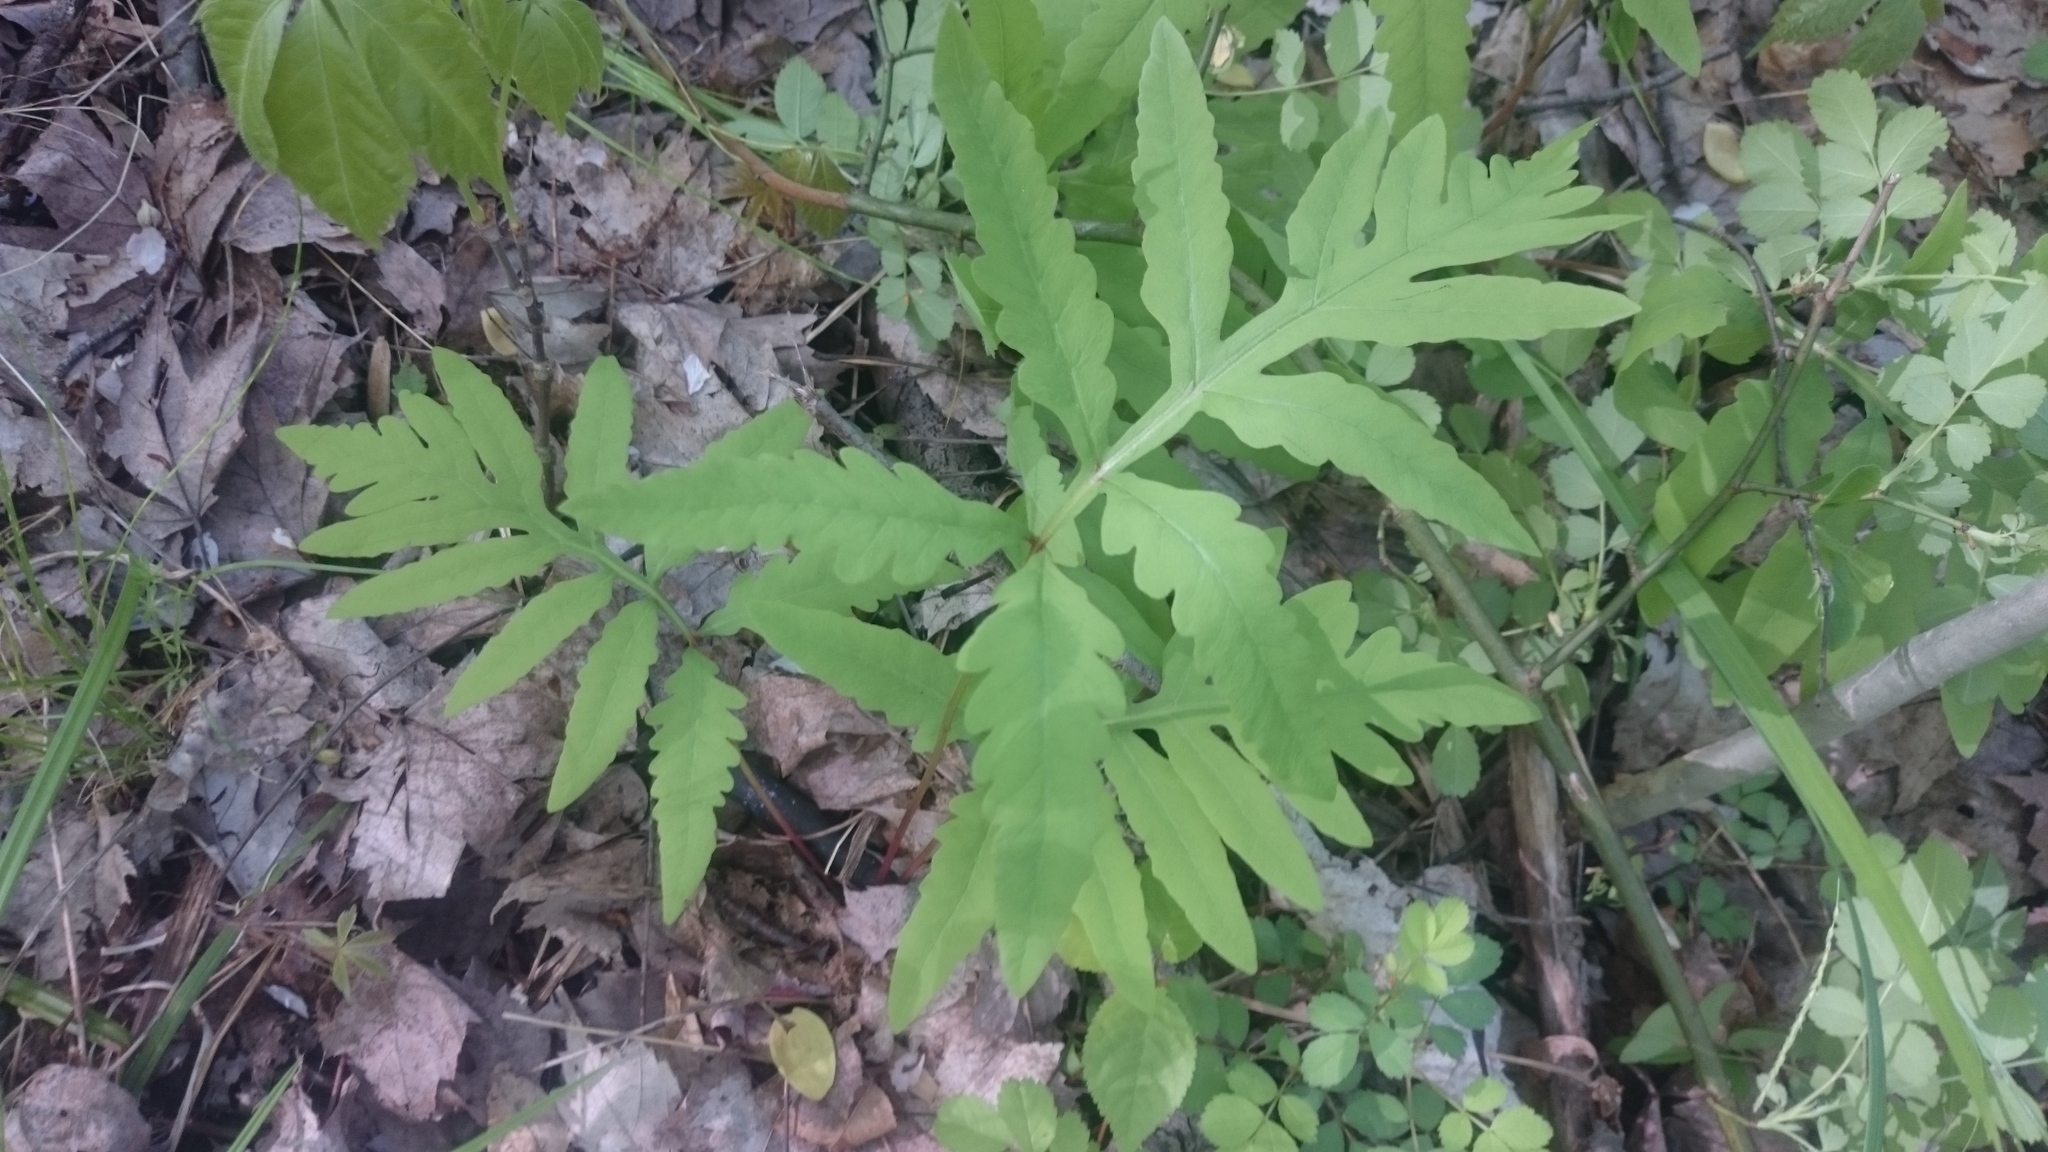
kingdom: Plantae
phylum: Tracheophyta
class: Polypodiopsida
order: Polypodiales
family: Onocleaceae
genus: Onoclea
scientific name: Onoclea sensibilis
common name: Sensitive fern
